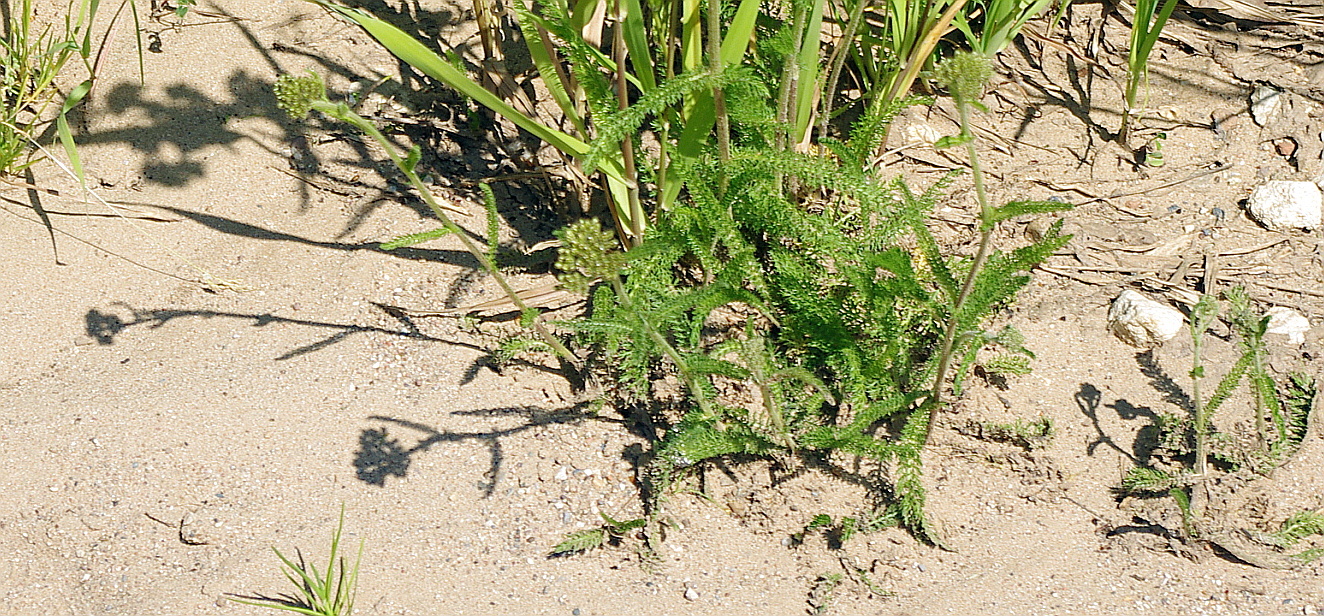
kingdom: Plantae
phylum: Tracheophyta
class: Magnoliopsida
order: Asterales
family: Asteraceae
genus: Achillea
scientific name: Achillea millefolium
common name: Yarrow
